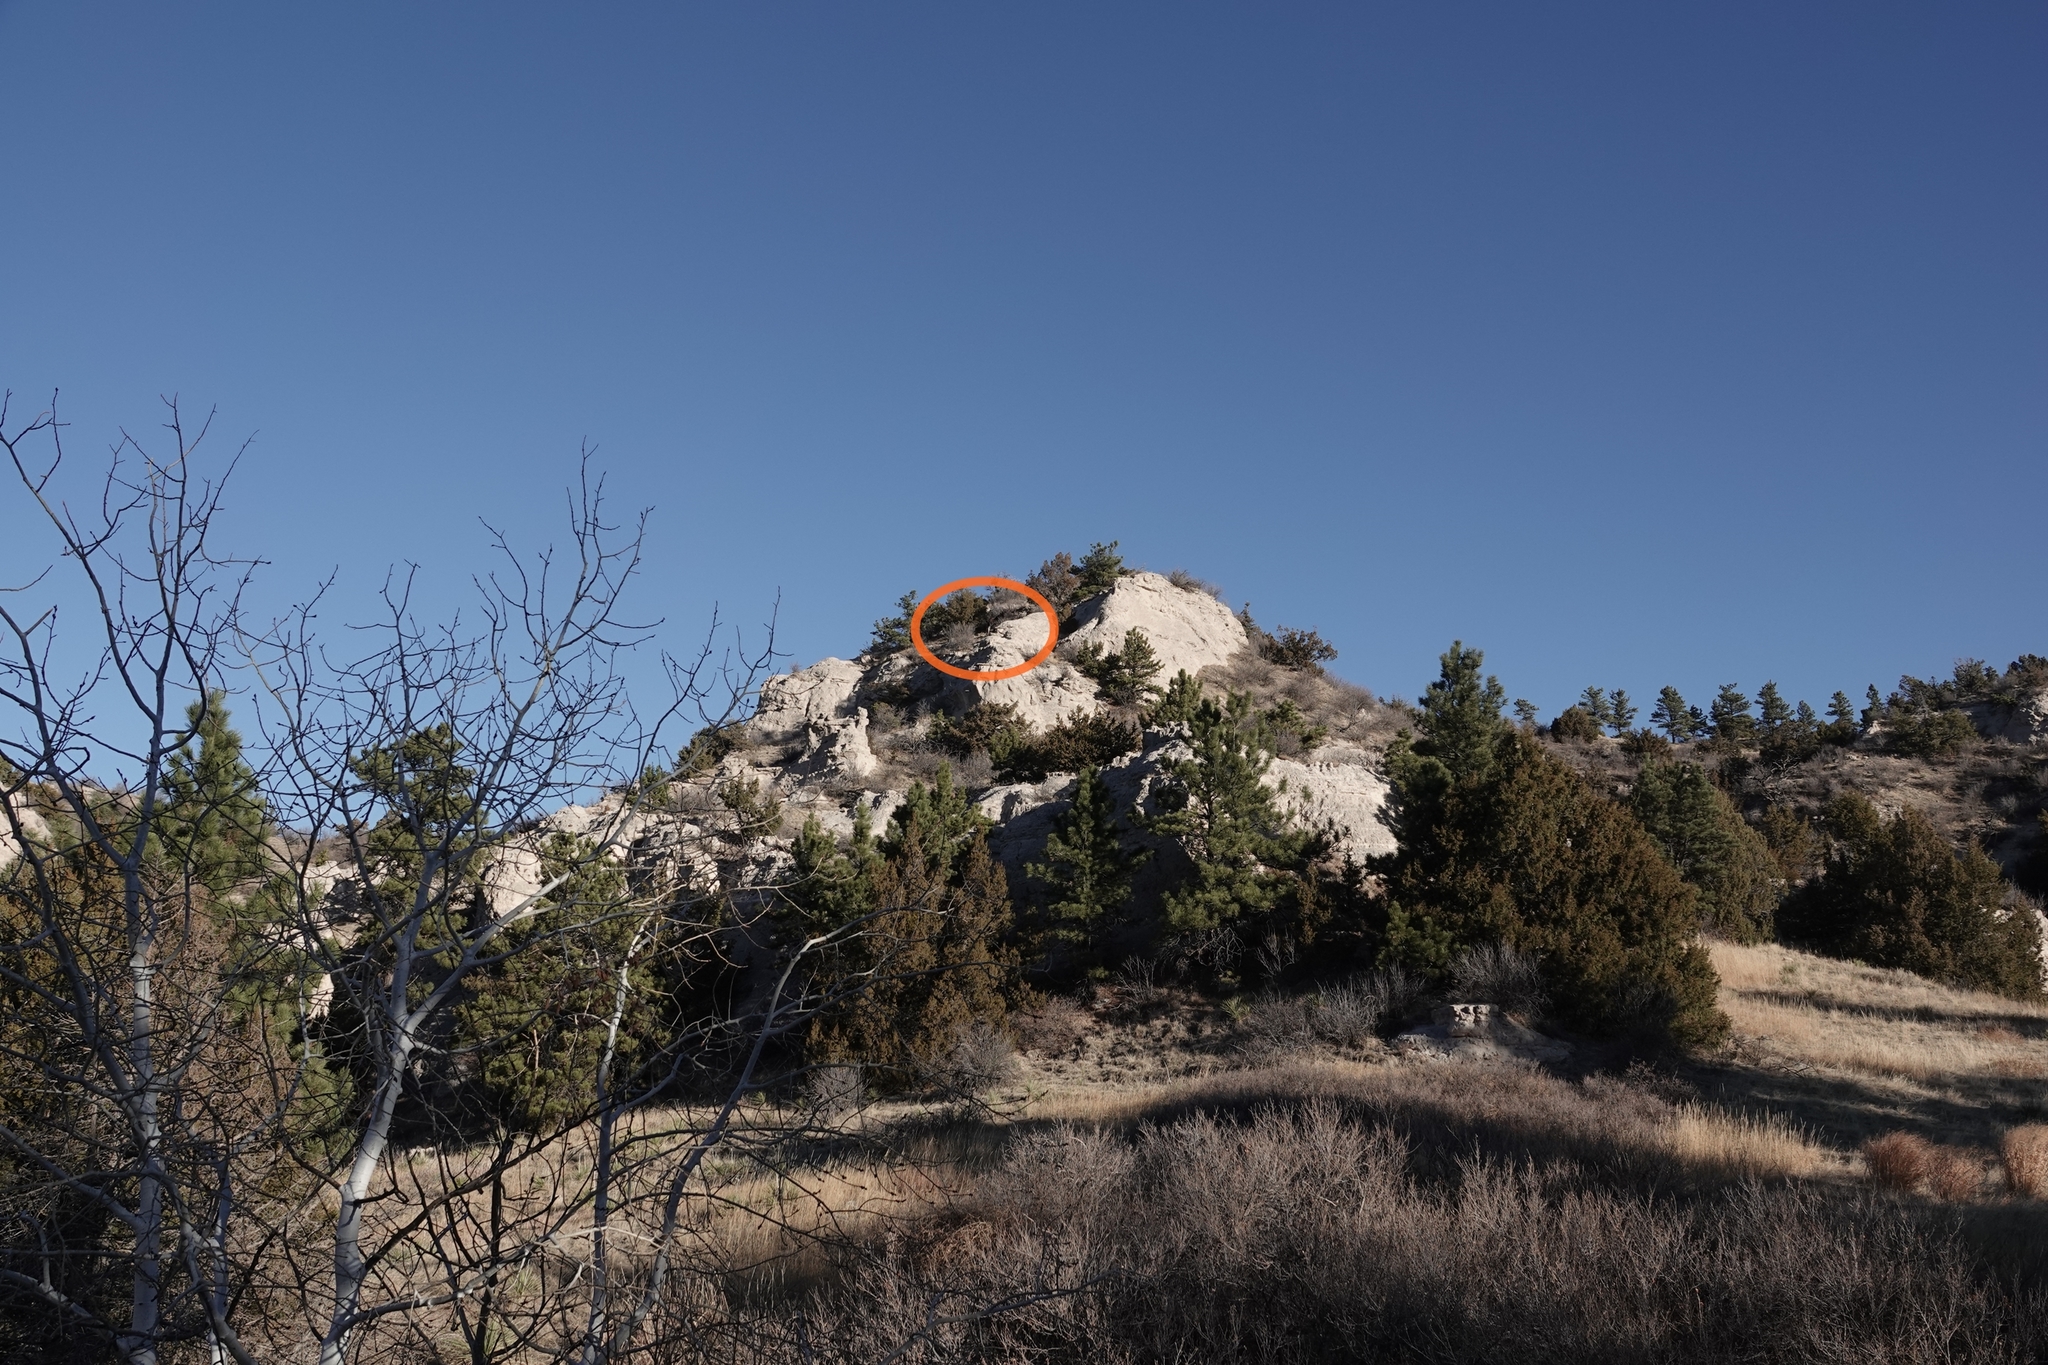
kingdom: Animalia
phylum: Chordata
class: Mammalia
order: Artiodactyla
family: Cervidae
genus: Alces
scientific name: Alces alces
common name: Moose
